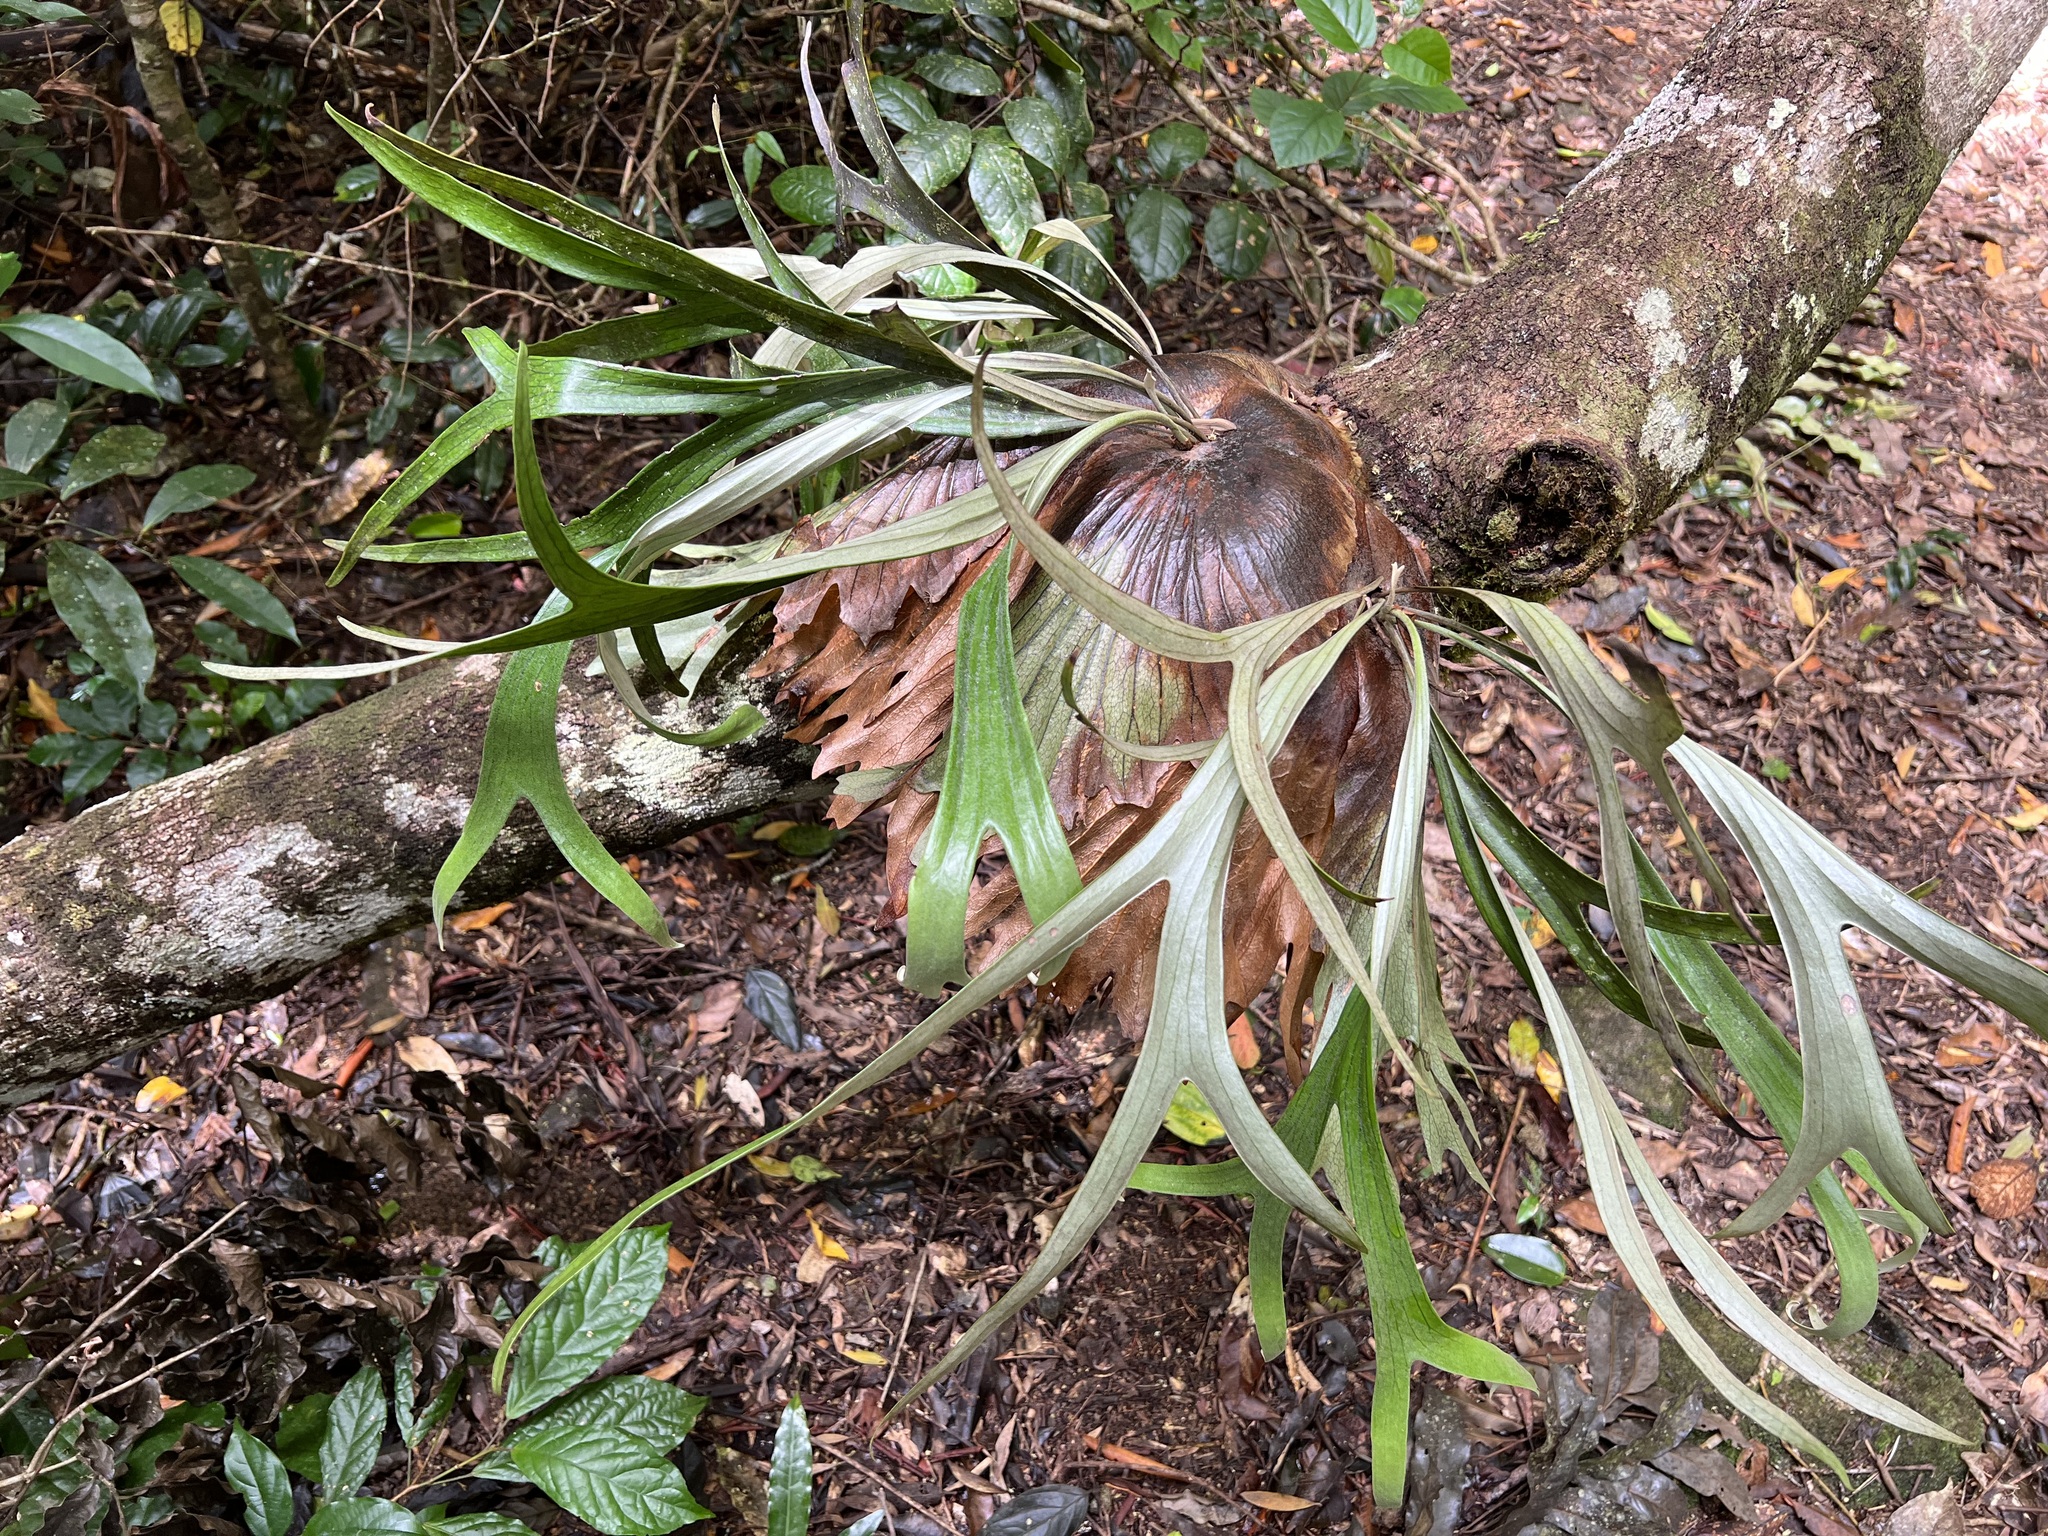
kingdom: Plantae
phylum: Tracheophyta
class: Polypodiopsida
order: Polypodiales
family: Polypodiaceae
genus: Platycerium
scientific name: Platycerium bifurcatum
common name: Elkhorn fern
